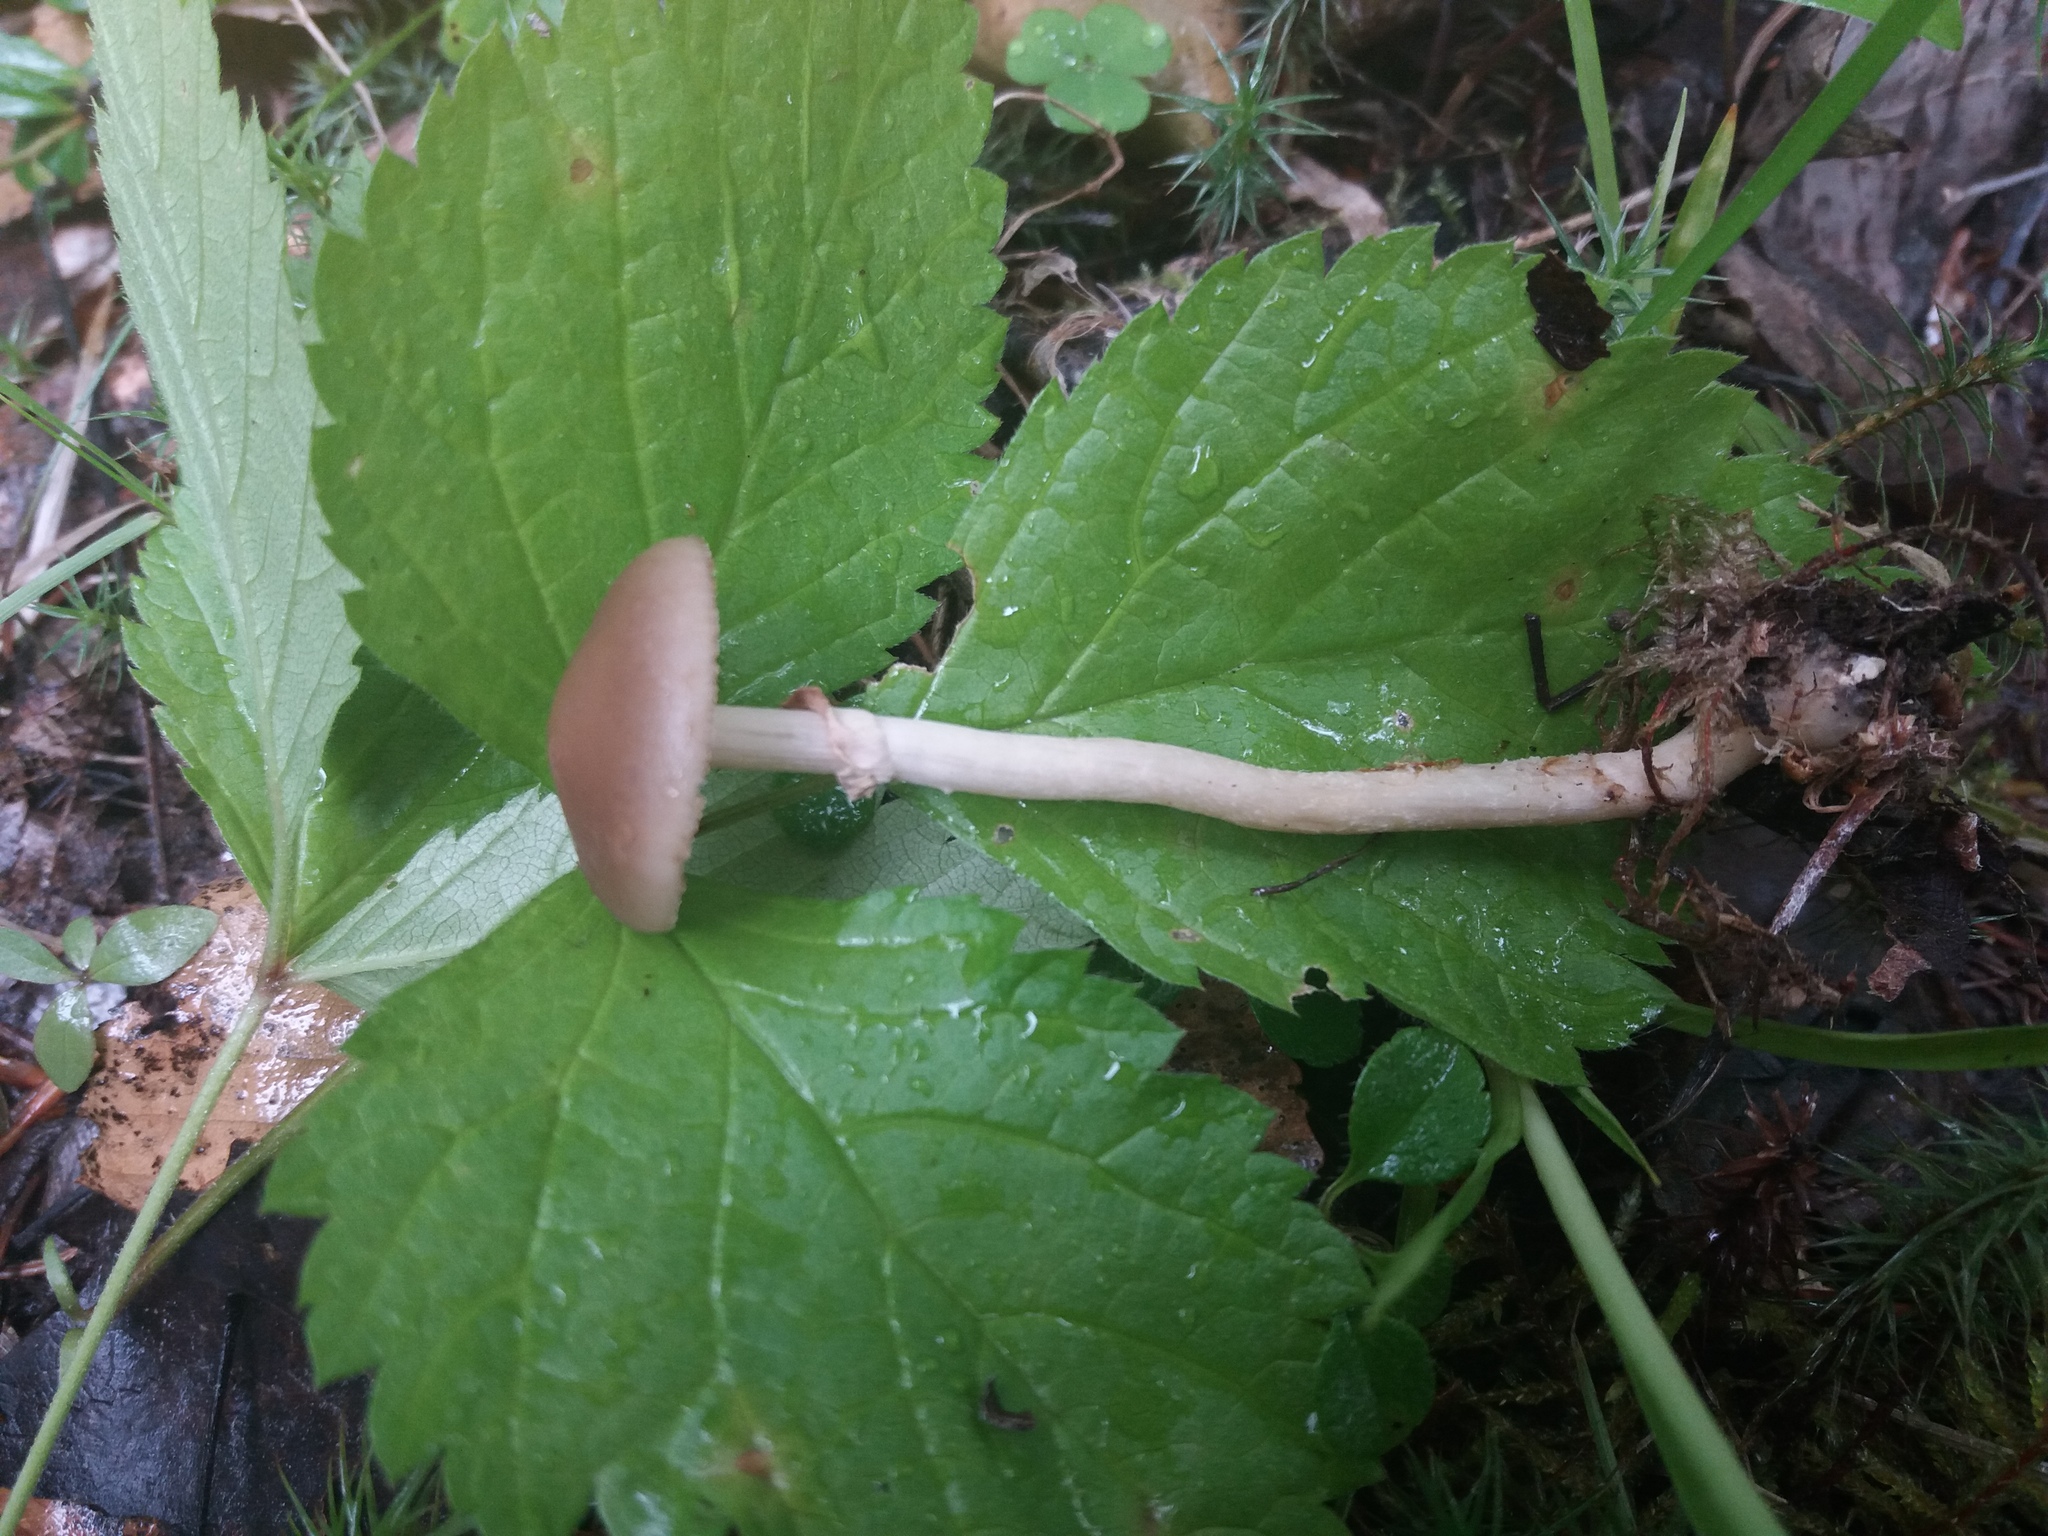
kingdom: Fungi
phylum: Basidiomycota
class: Agaricomycetes
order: Agaricales
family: Strophariaceae
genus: Agrocybe
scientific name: Agrocybe praecox
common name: Spring fieldcap
